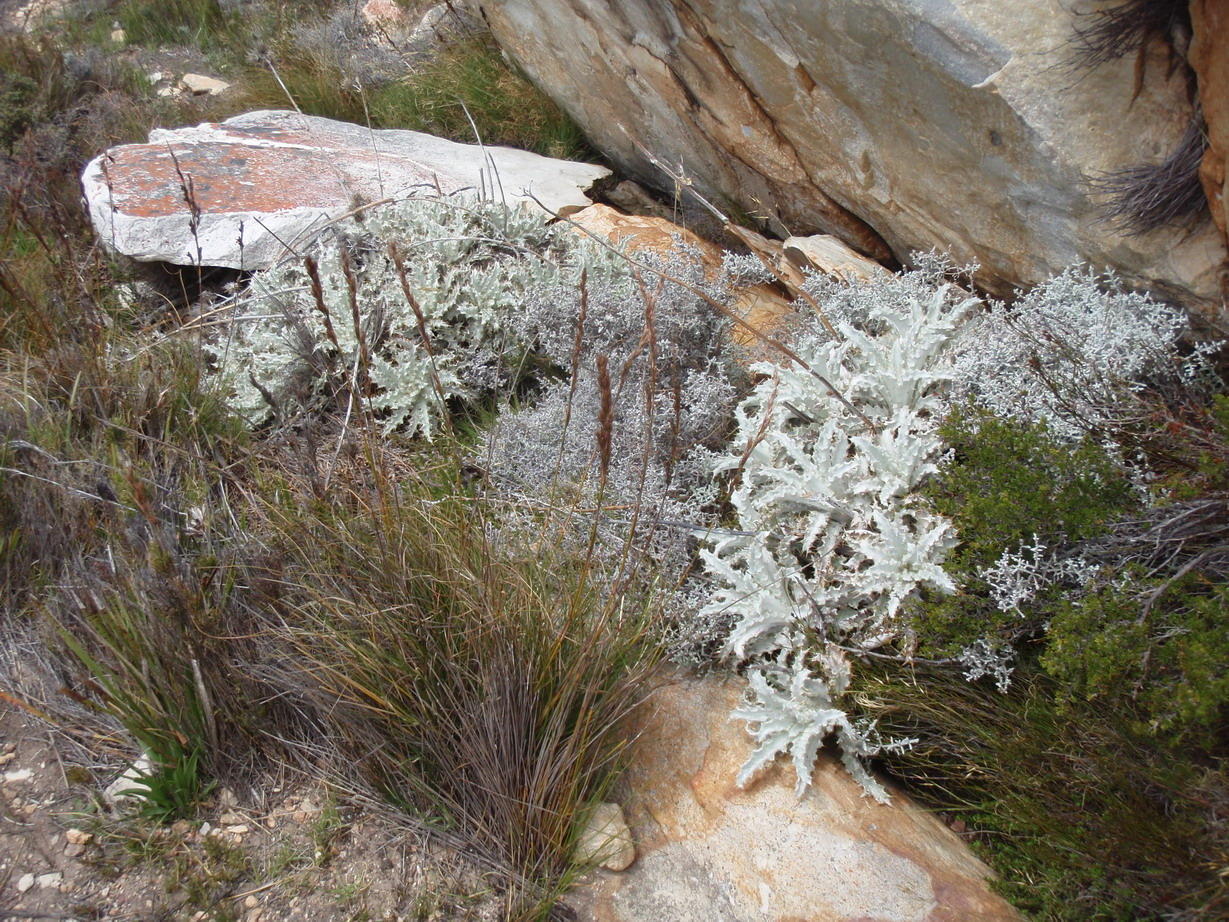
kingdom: Plantae
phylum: Tracheophyta
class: Magnoliopsida
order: Asterales
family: Asteraceae
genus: Berkheya
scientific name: Berkheya francisci
